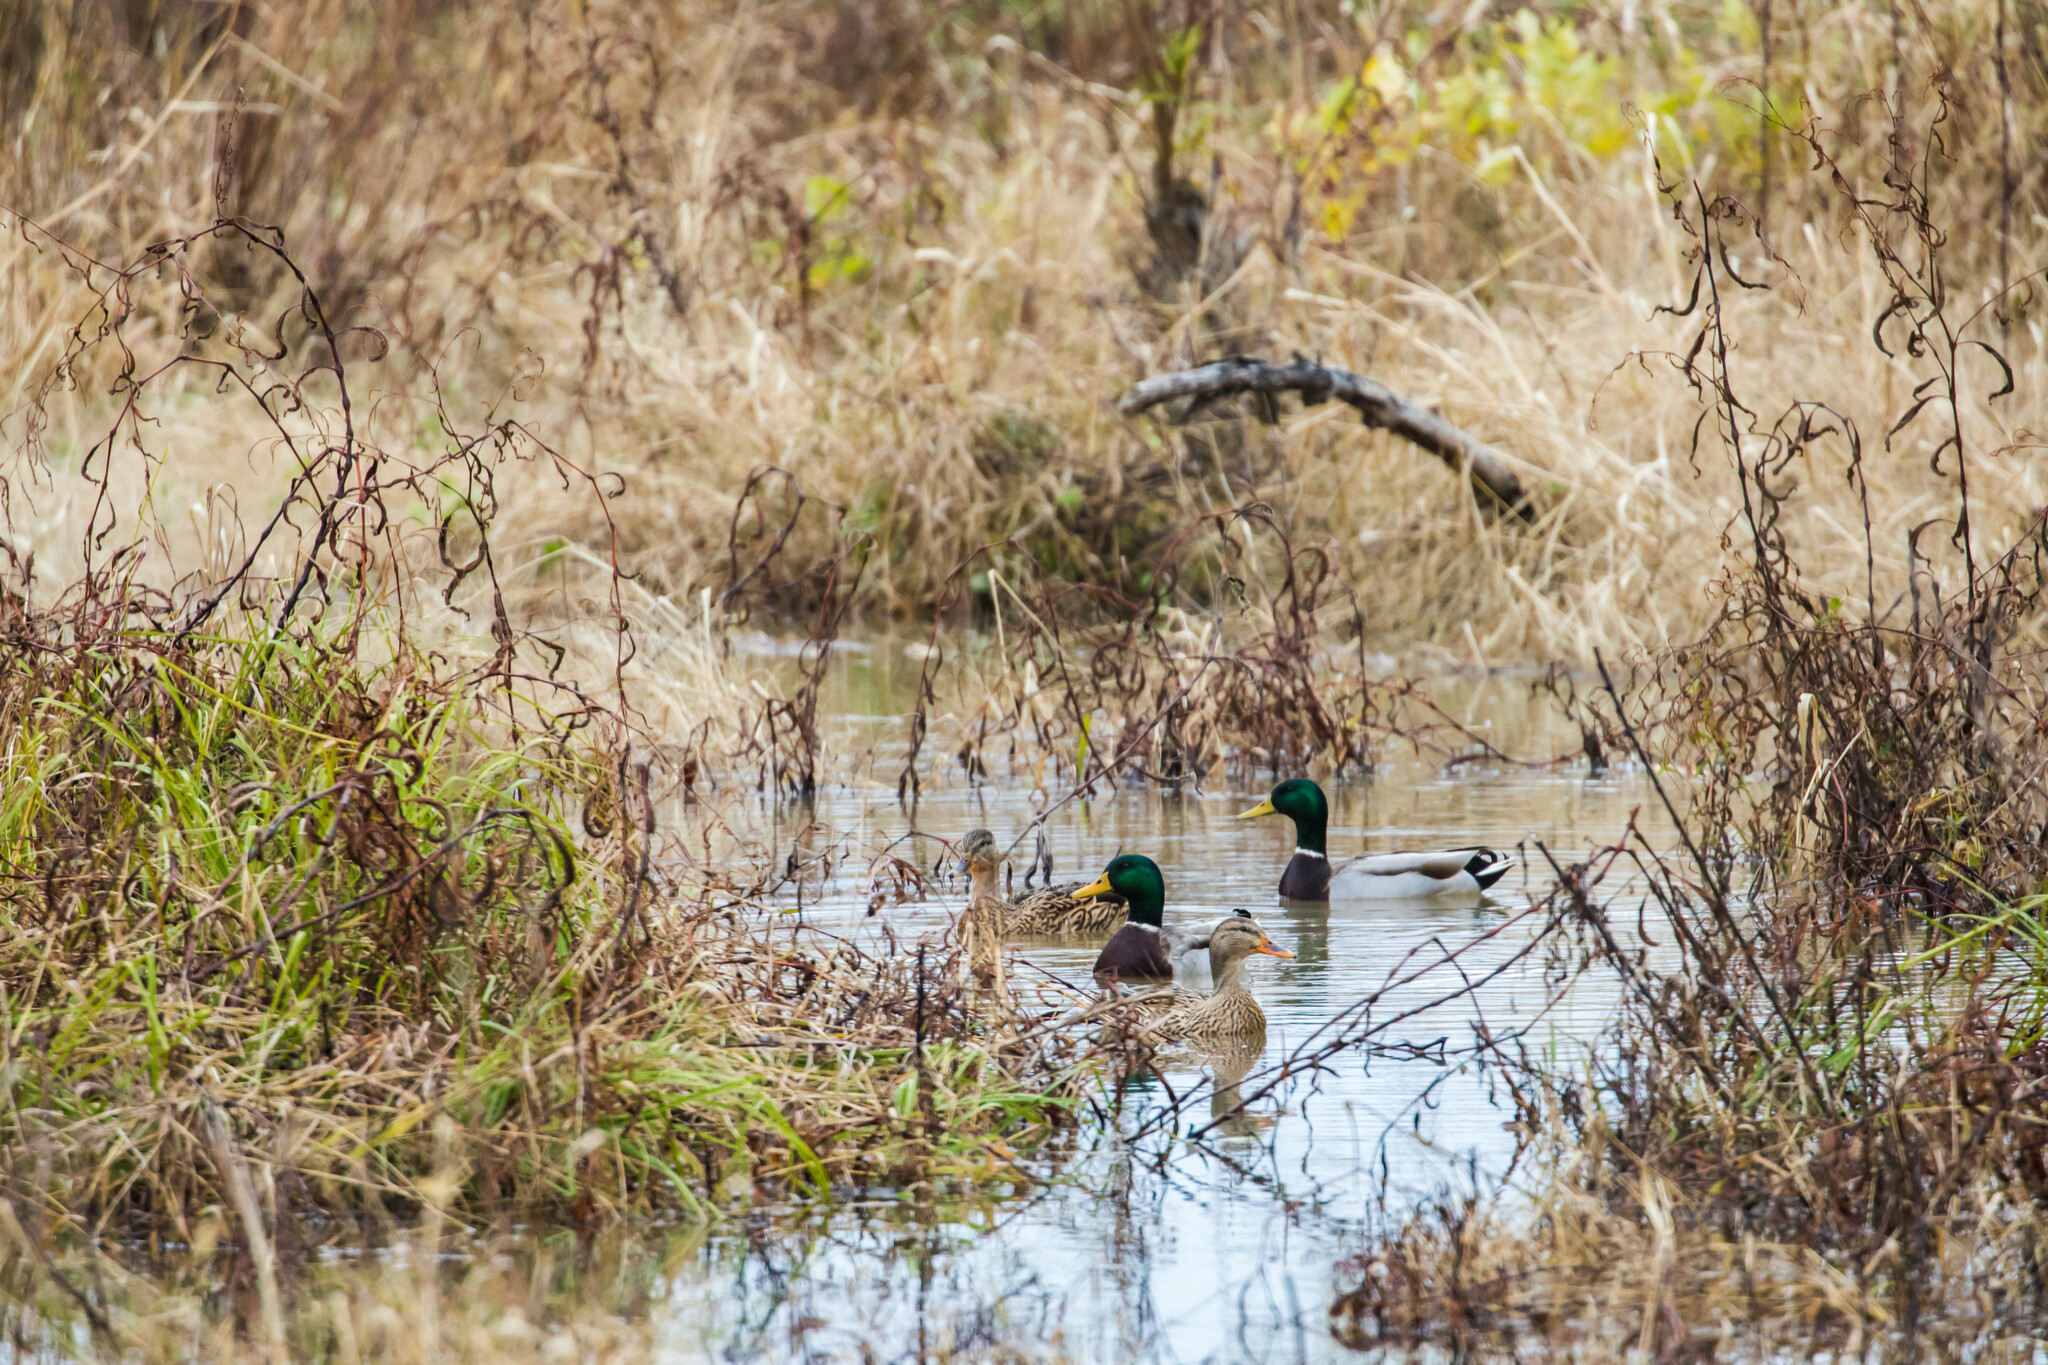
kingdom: Animalia
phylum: Chordata
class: Aves
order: Anseriformes
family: Anatidae
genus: Anas
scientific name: Anas platyrhynchos
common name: Mallard
